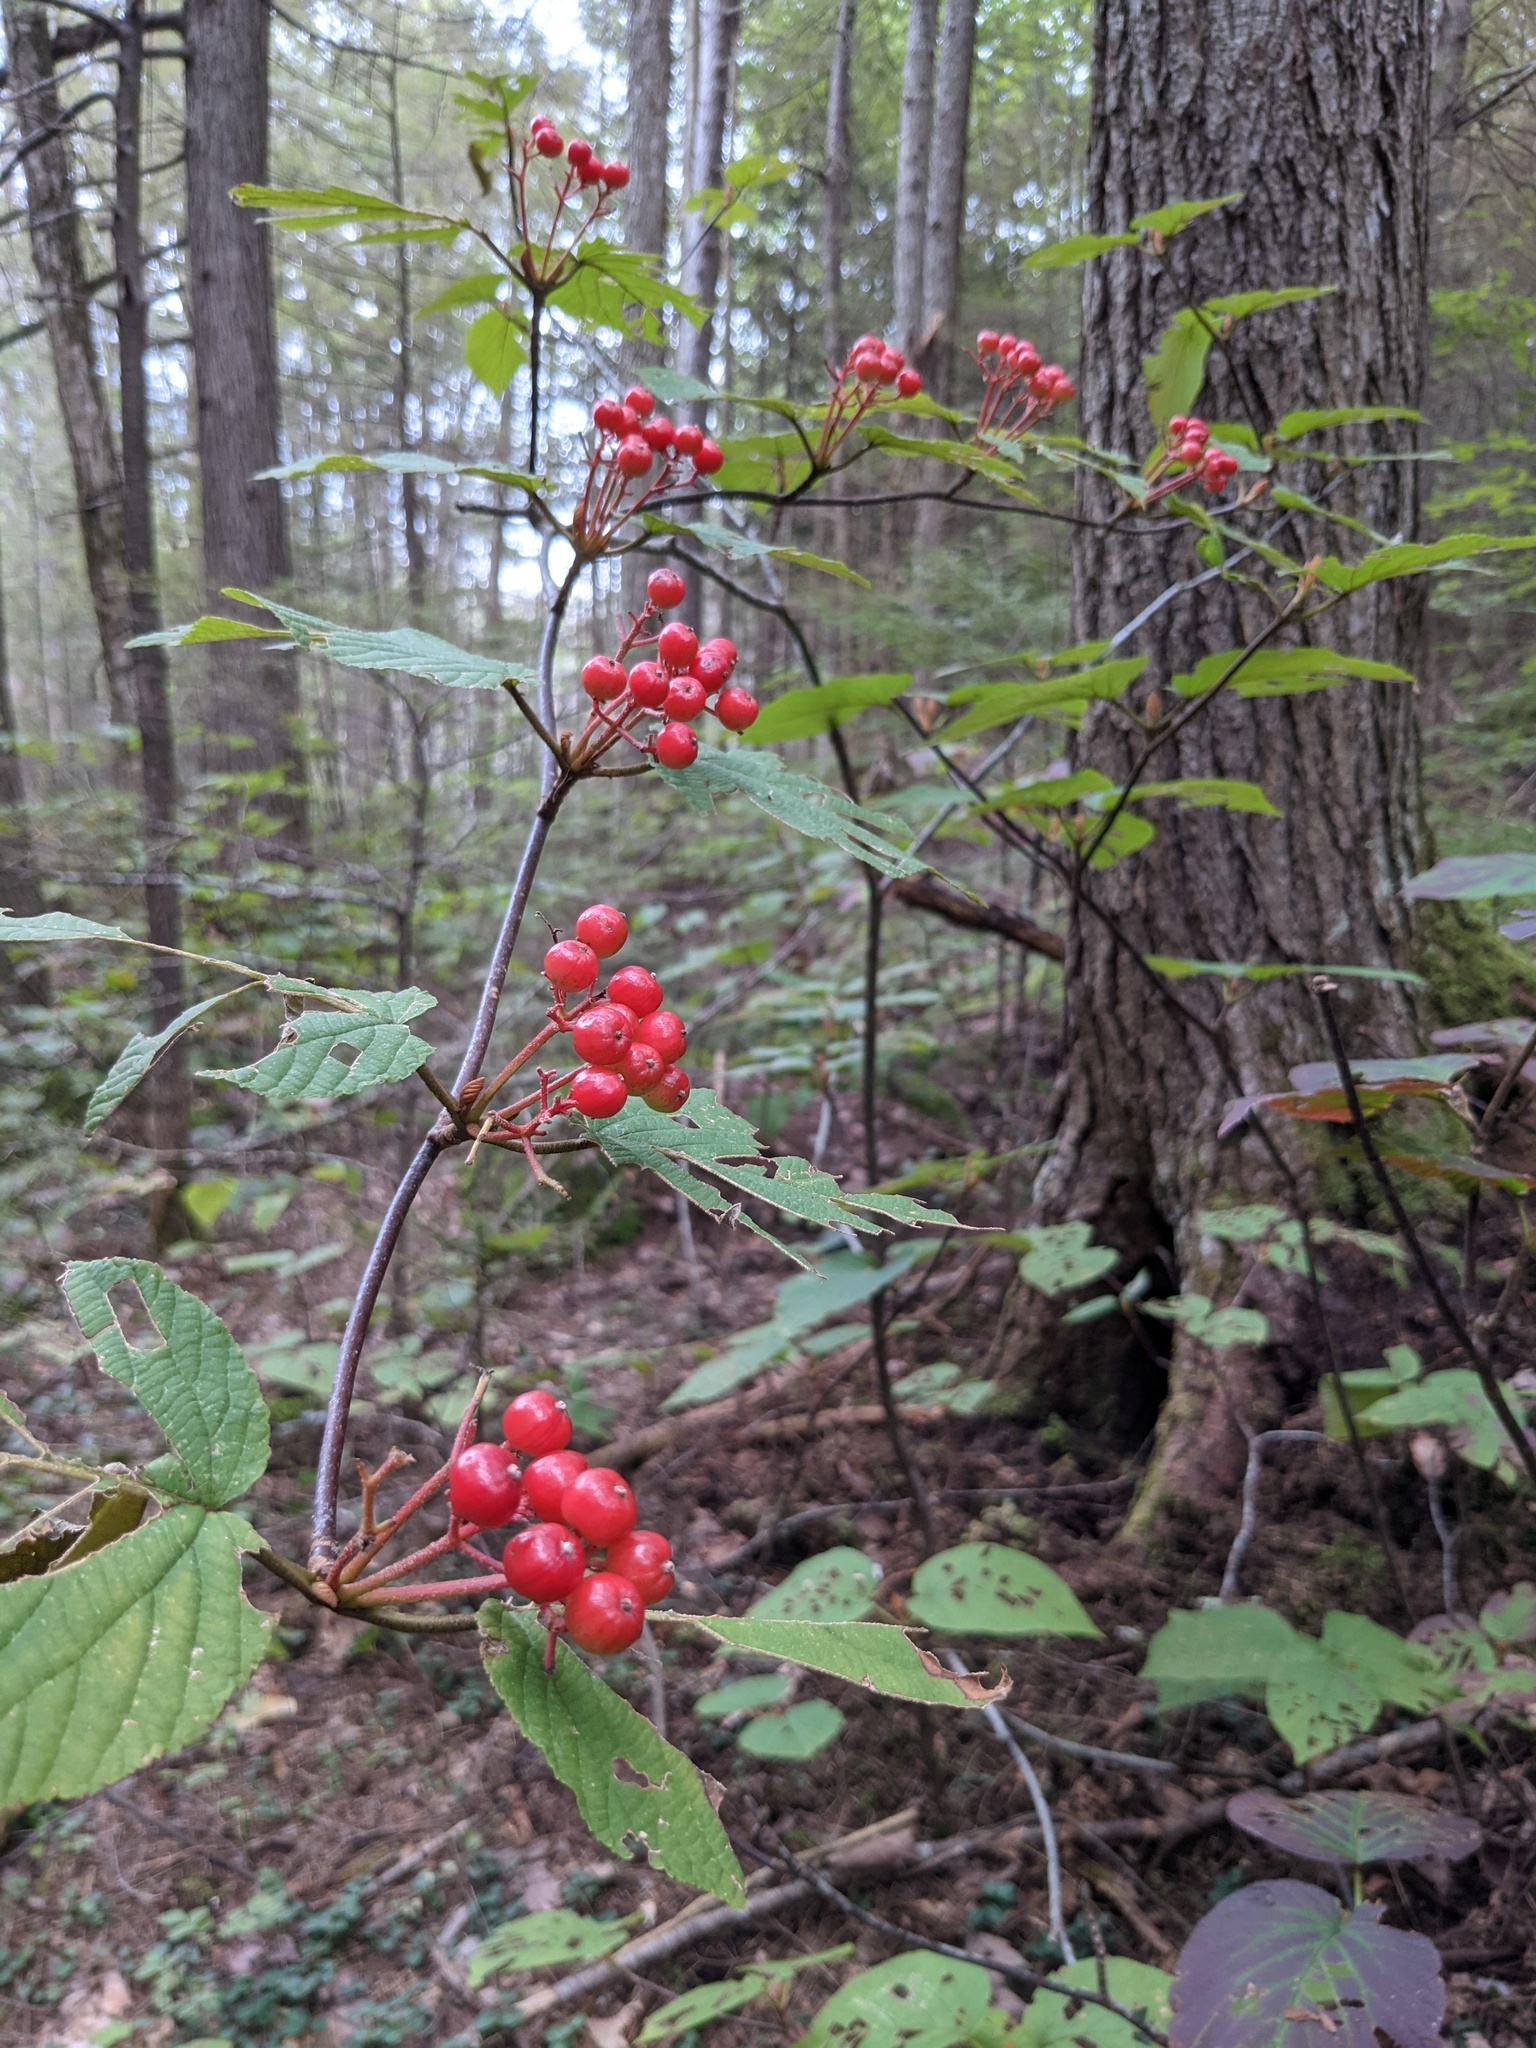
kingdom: Plantae
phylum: Tracheophyta
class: Magnoliopsida
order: Dipsacales
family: Viburnaceae
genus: Viburnum
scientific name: Viburnum lantanoides
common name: Hobblebush
